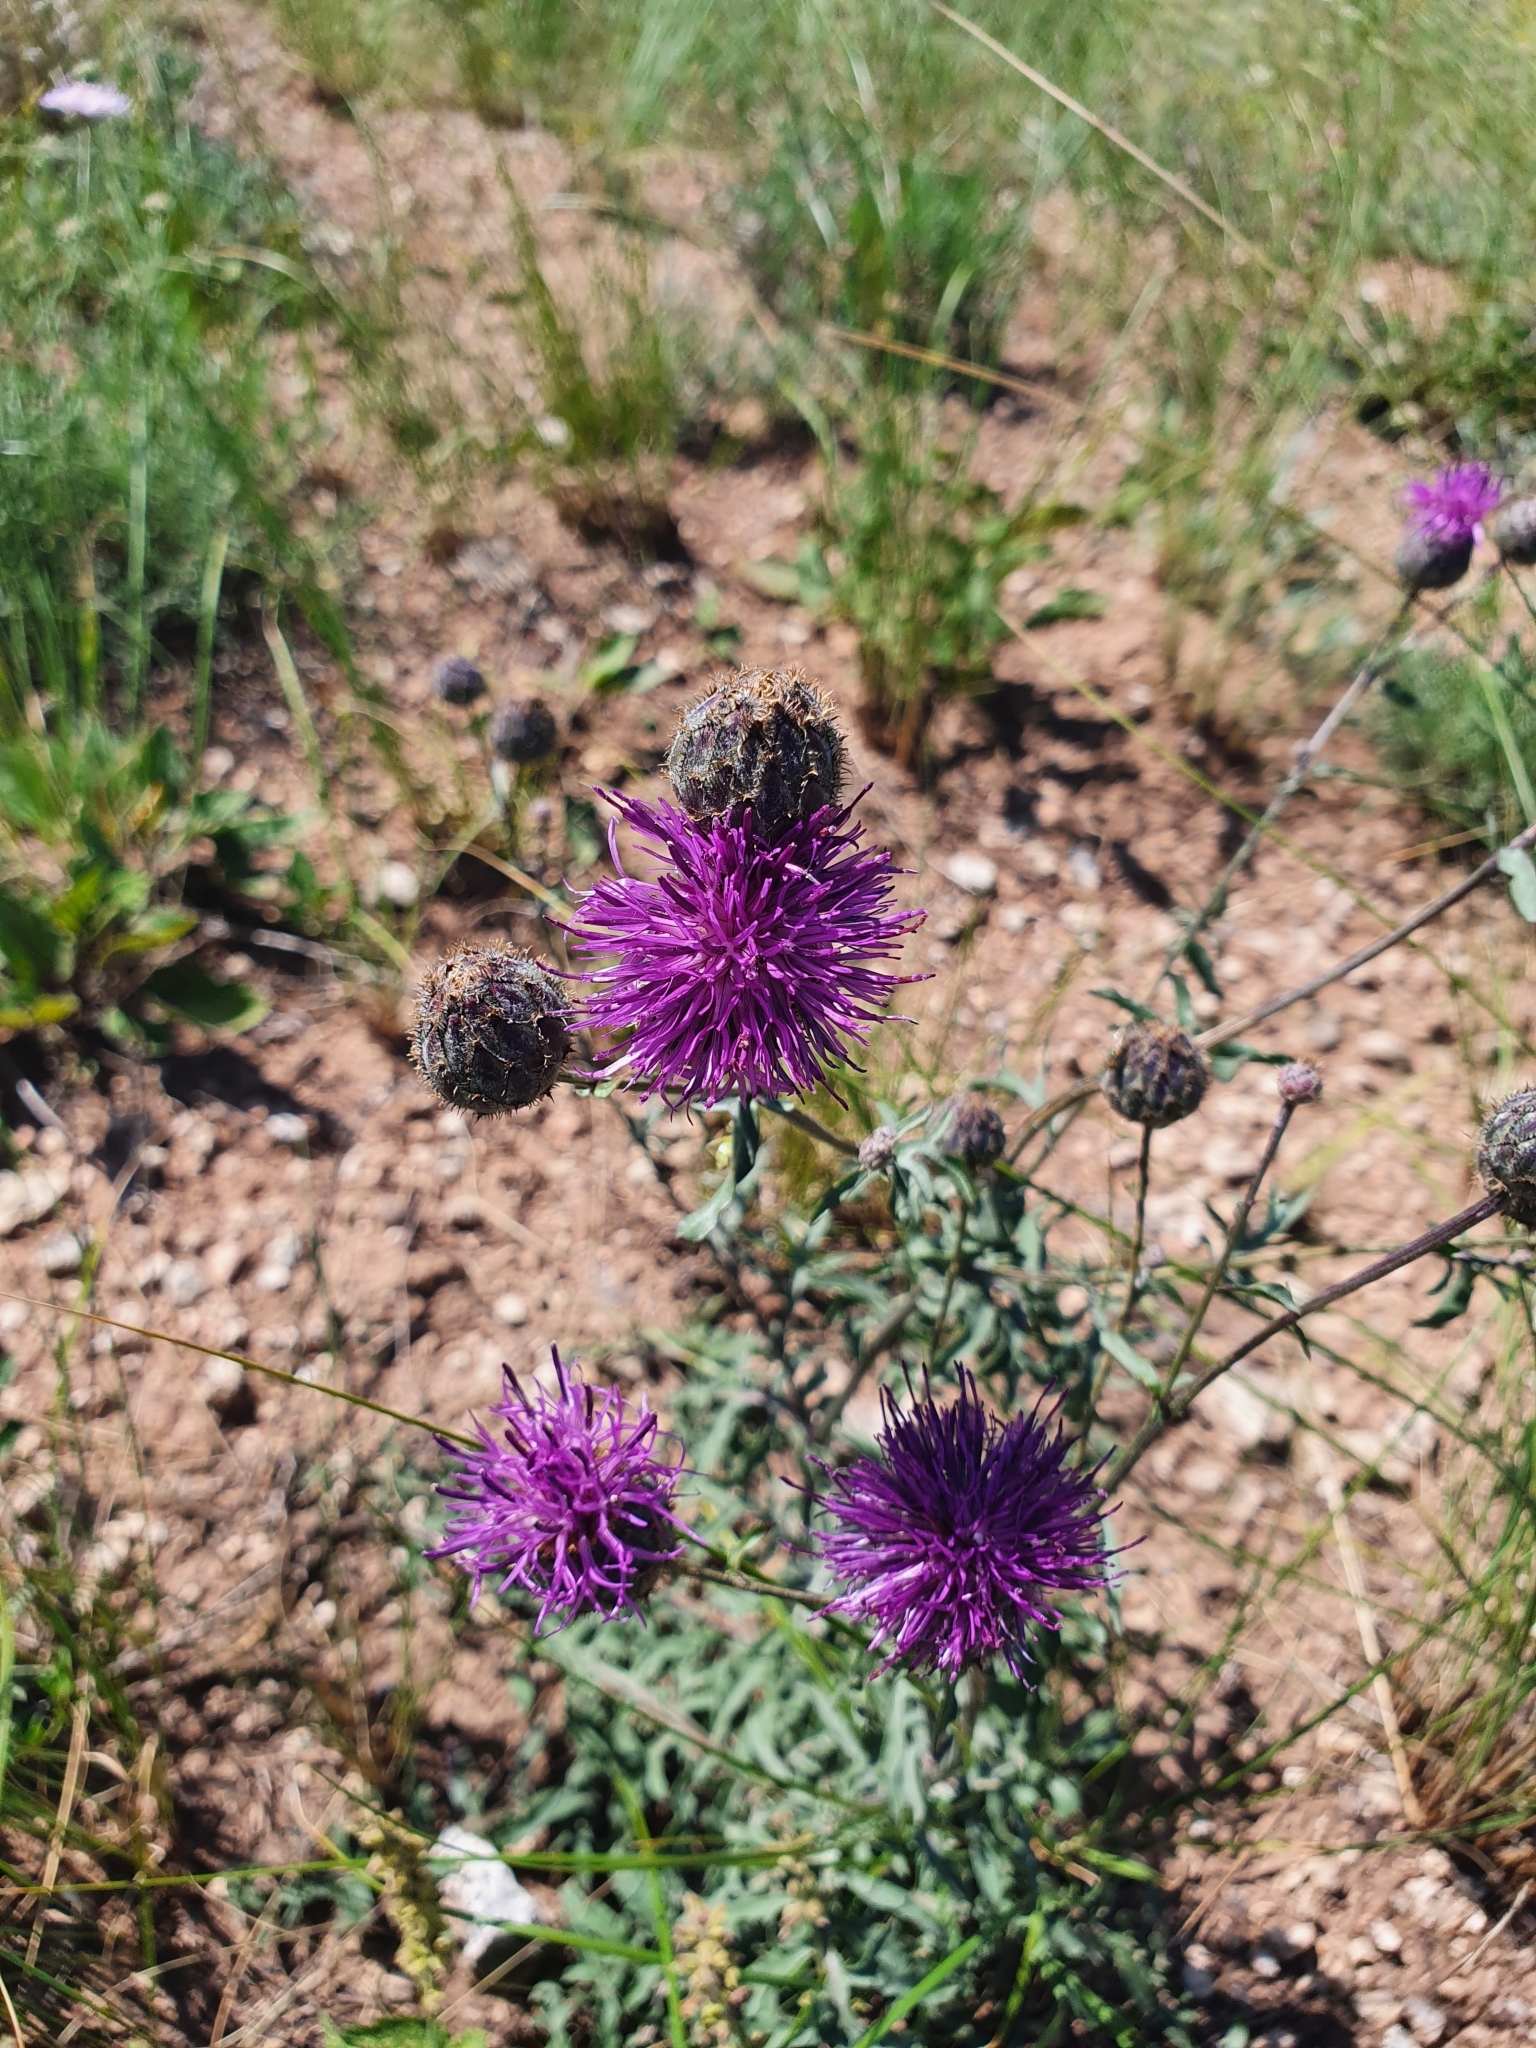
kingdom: Plantae
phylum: Tracheophyta
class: Magnoliopsida
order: Asterales
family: Asteraceae
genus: Centaurea
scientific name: Centaurea scabiosa
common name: Greater knapweed
